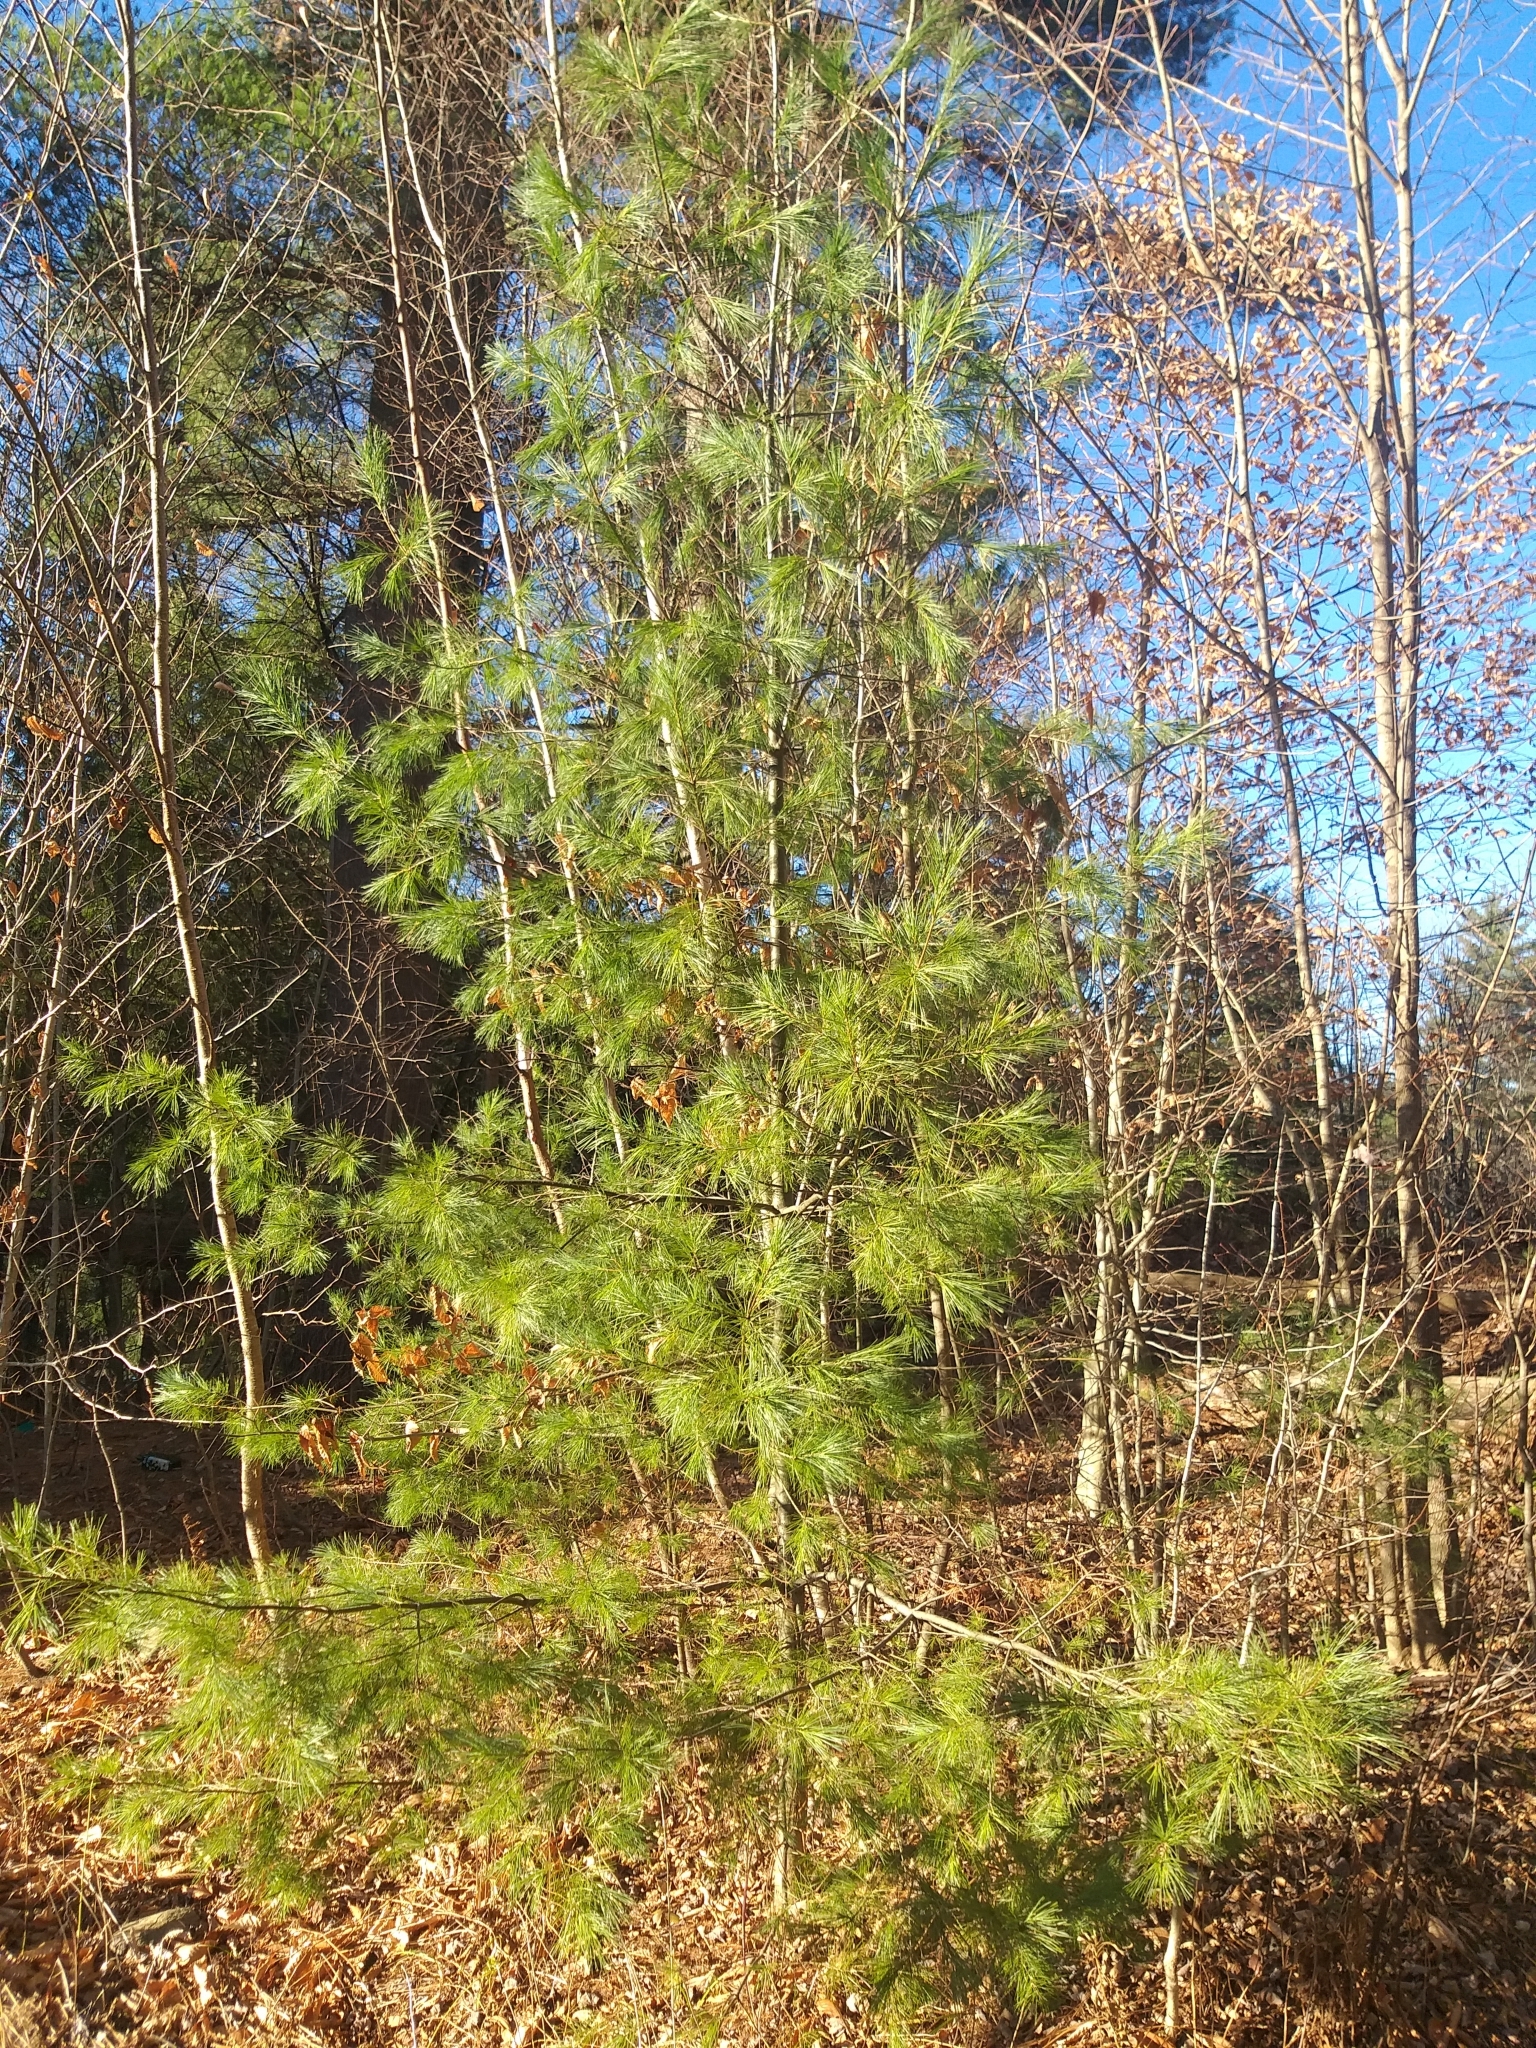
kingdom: Plantae
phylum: Tracheophyta
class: Pinopsida
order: Pinales
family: Pinaceae
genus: Pinus
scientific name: Pinus strobus
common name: Weymouth pine
